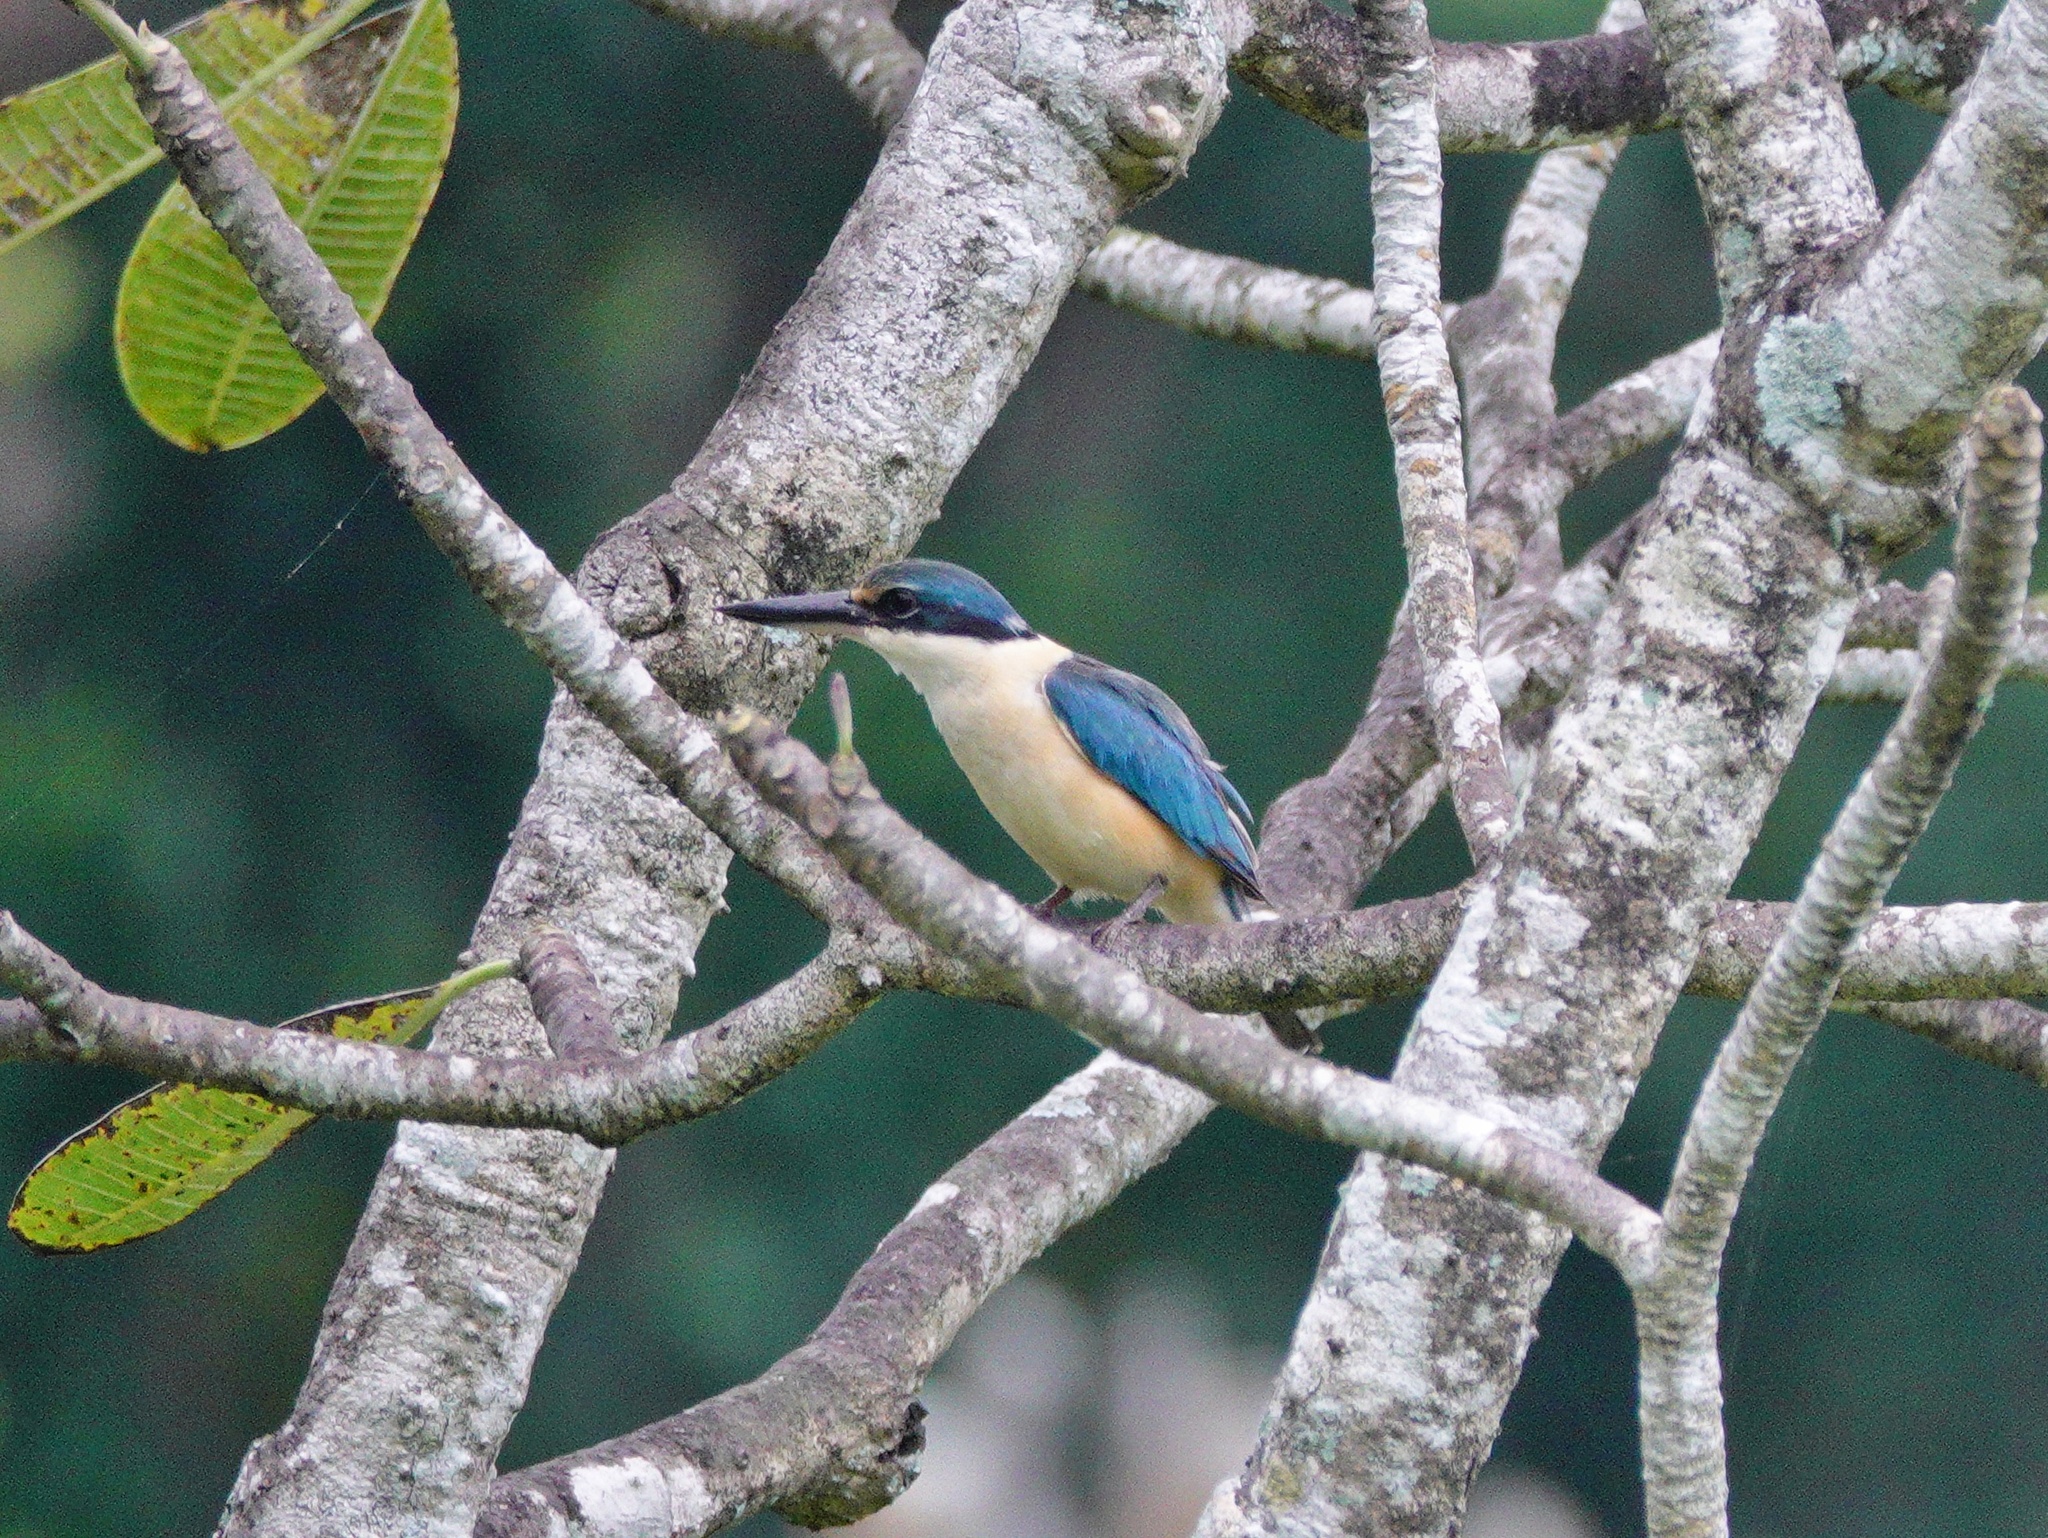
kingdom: Animalia
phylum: Chordata
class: Aves
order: Coraciiformes
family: Alcedinidae
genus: Todiramphus
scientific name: Todiramphus sanctus
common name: Sacred kingfisher
